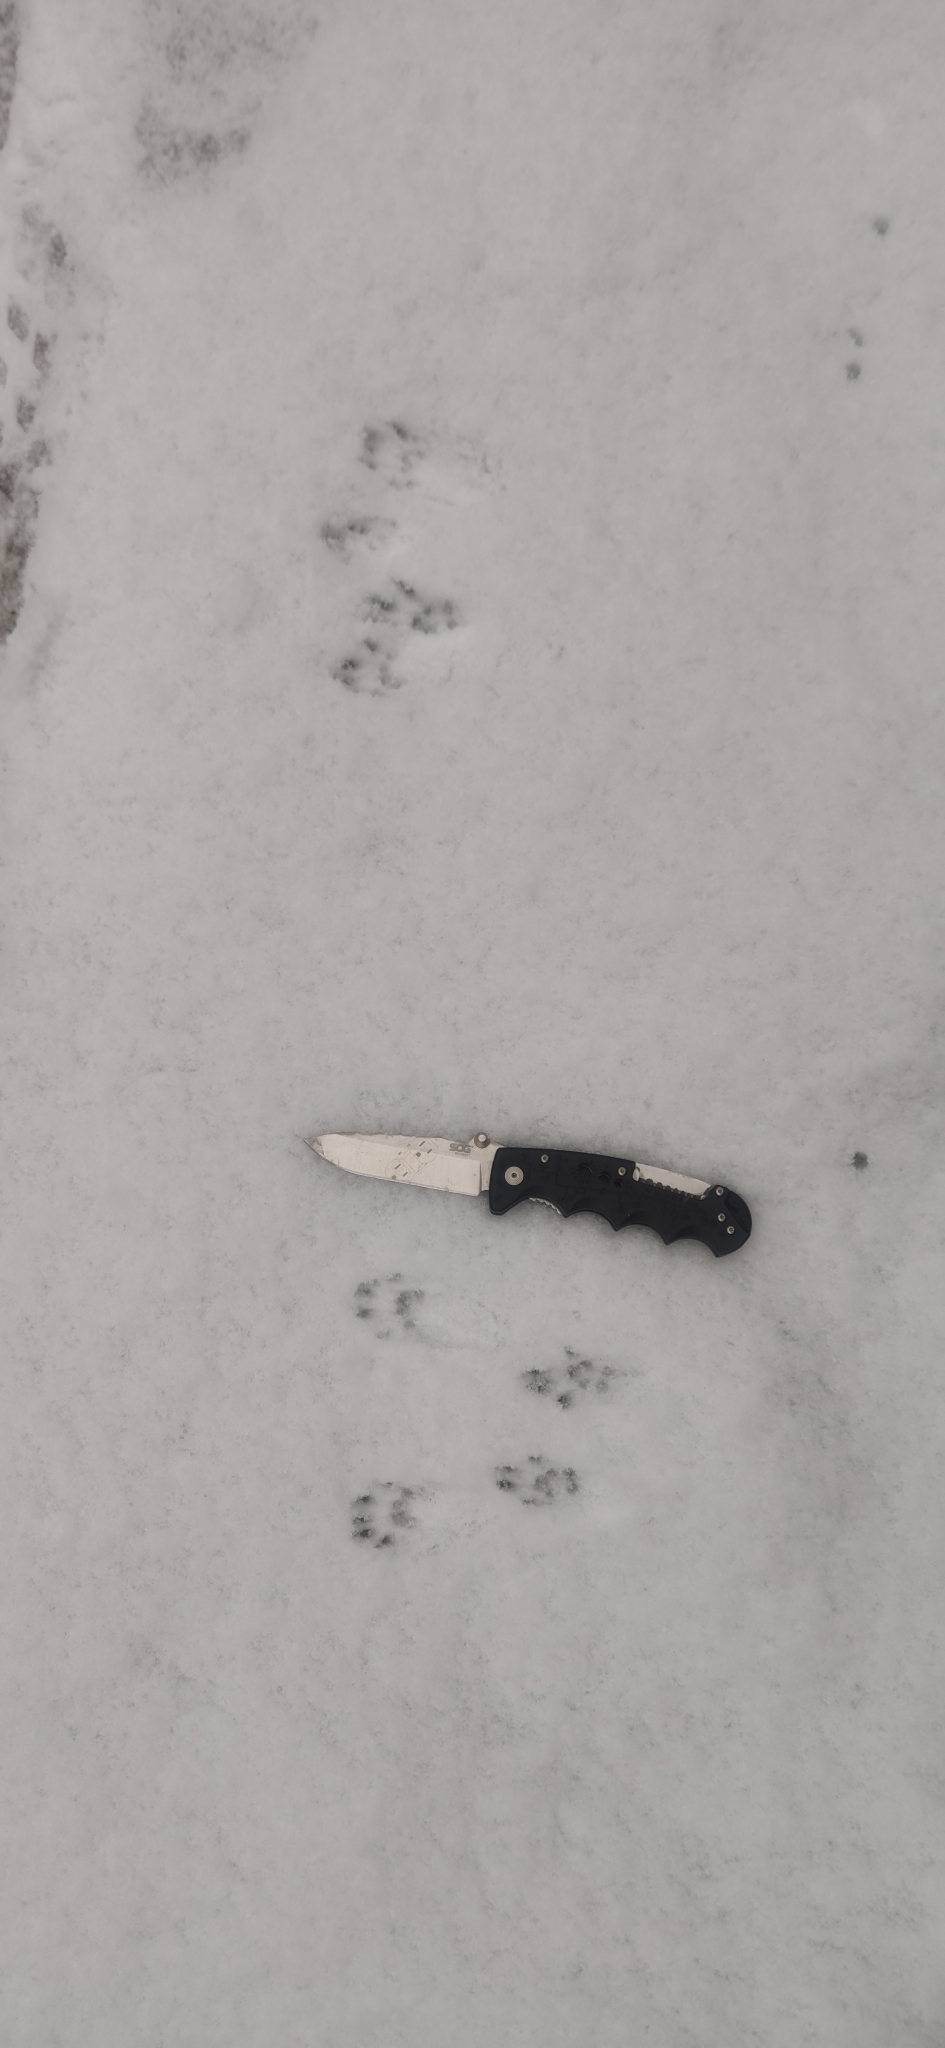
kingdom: Animalia
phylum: Chordata
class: Mammalia
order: Rodentia
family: Sciuridae
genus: Sciurus
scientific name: Sciurus vulgaris
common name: Eurasian red squirrel
